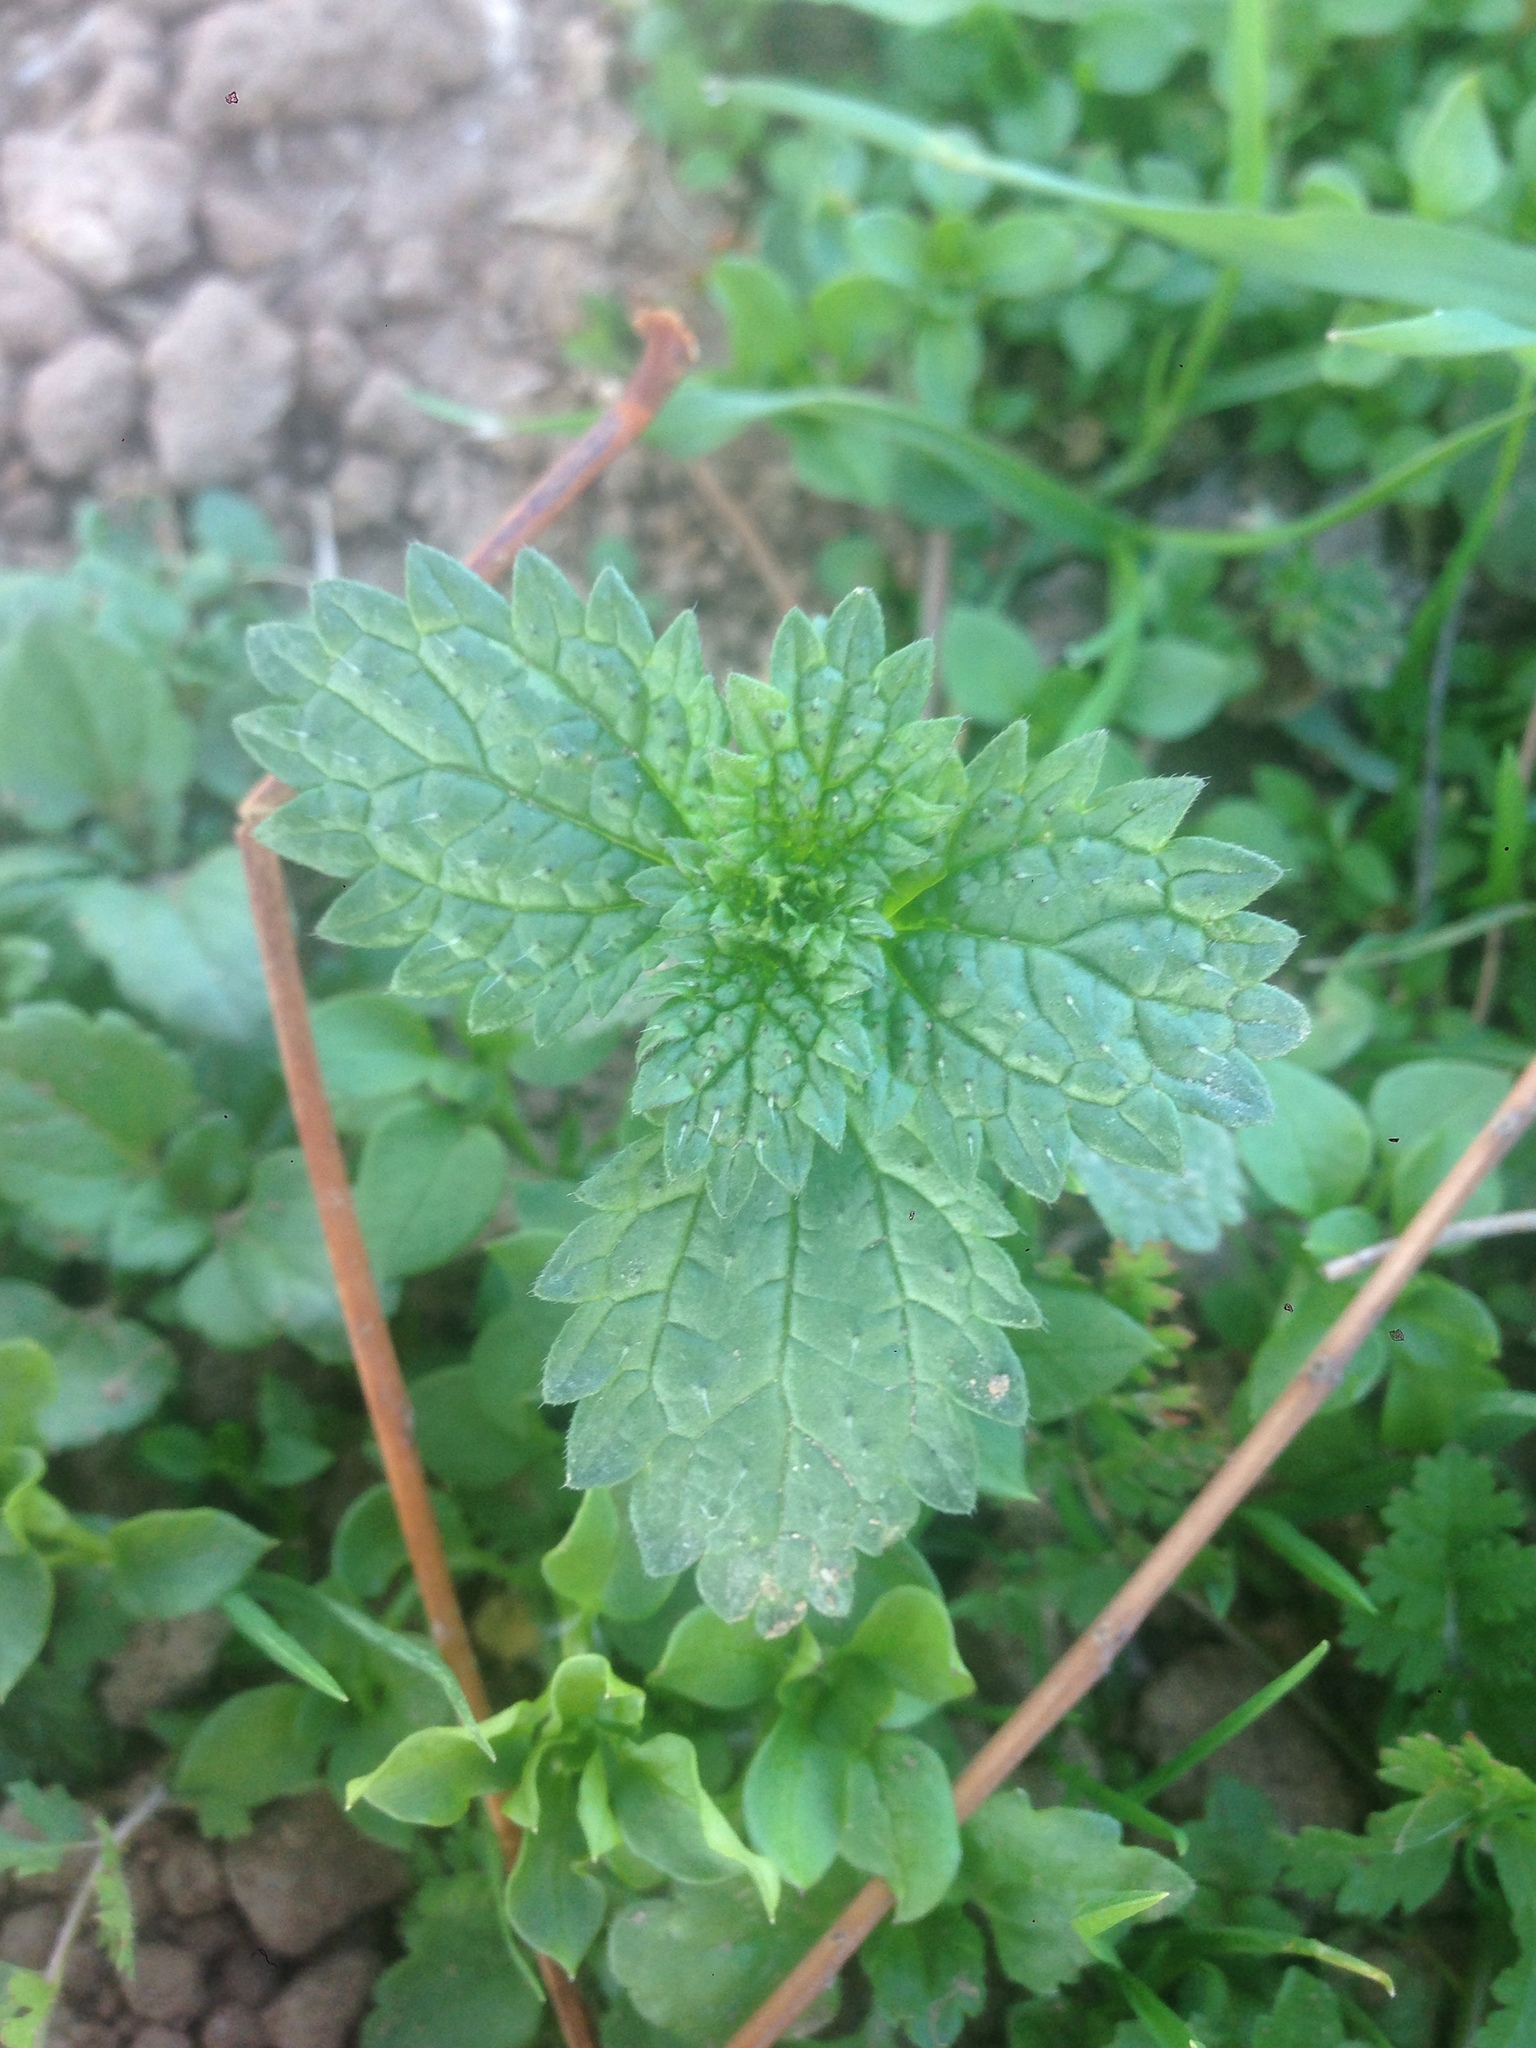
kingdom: Plantae
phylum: Tracheophyta
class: Magnoliopsida
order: Rosales
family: Urticaceae
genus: Urtica
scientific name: Urtica urens
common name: Dwarf nettle
